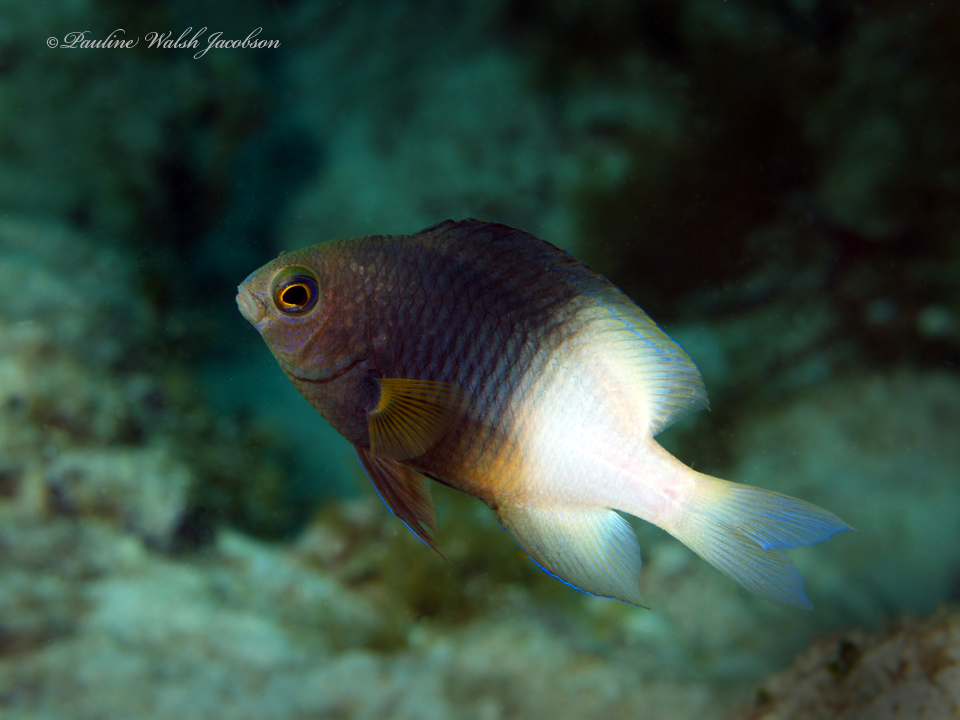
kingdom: Animalia
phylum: Chordata
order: Perciformes
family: Pomacentridae
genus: Stegastes
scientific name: Stegastes partitus
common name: Bicolor damselfish
